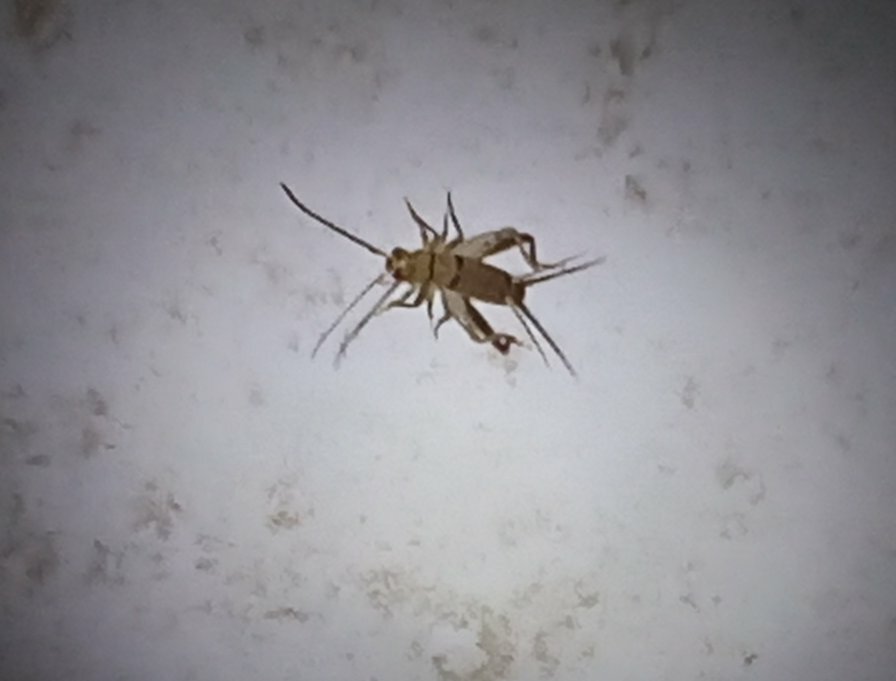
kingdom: Animalia
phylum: Arthropoda
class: Insecta
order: Orthoptera
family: Gryllidae
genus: Gryllodes
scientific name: Gryllodes sigillatus
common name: Tropical house cricket
